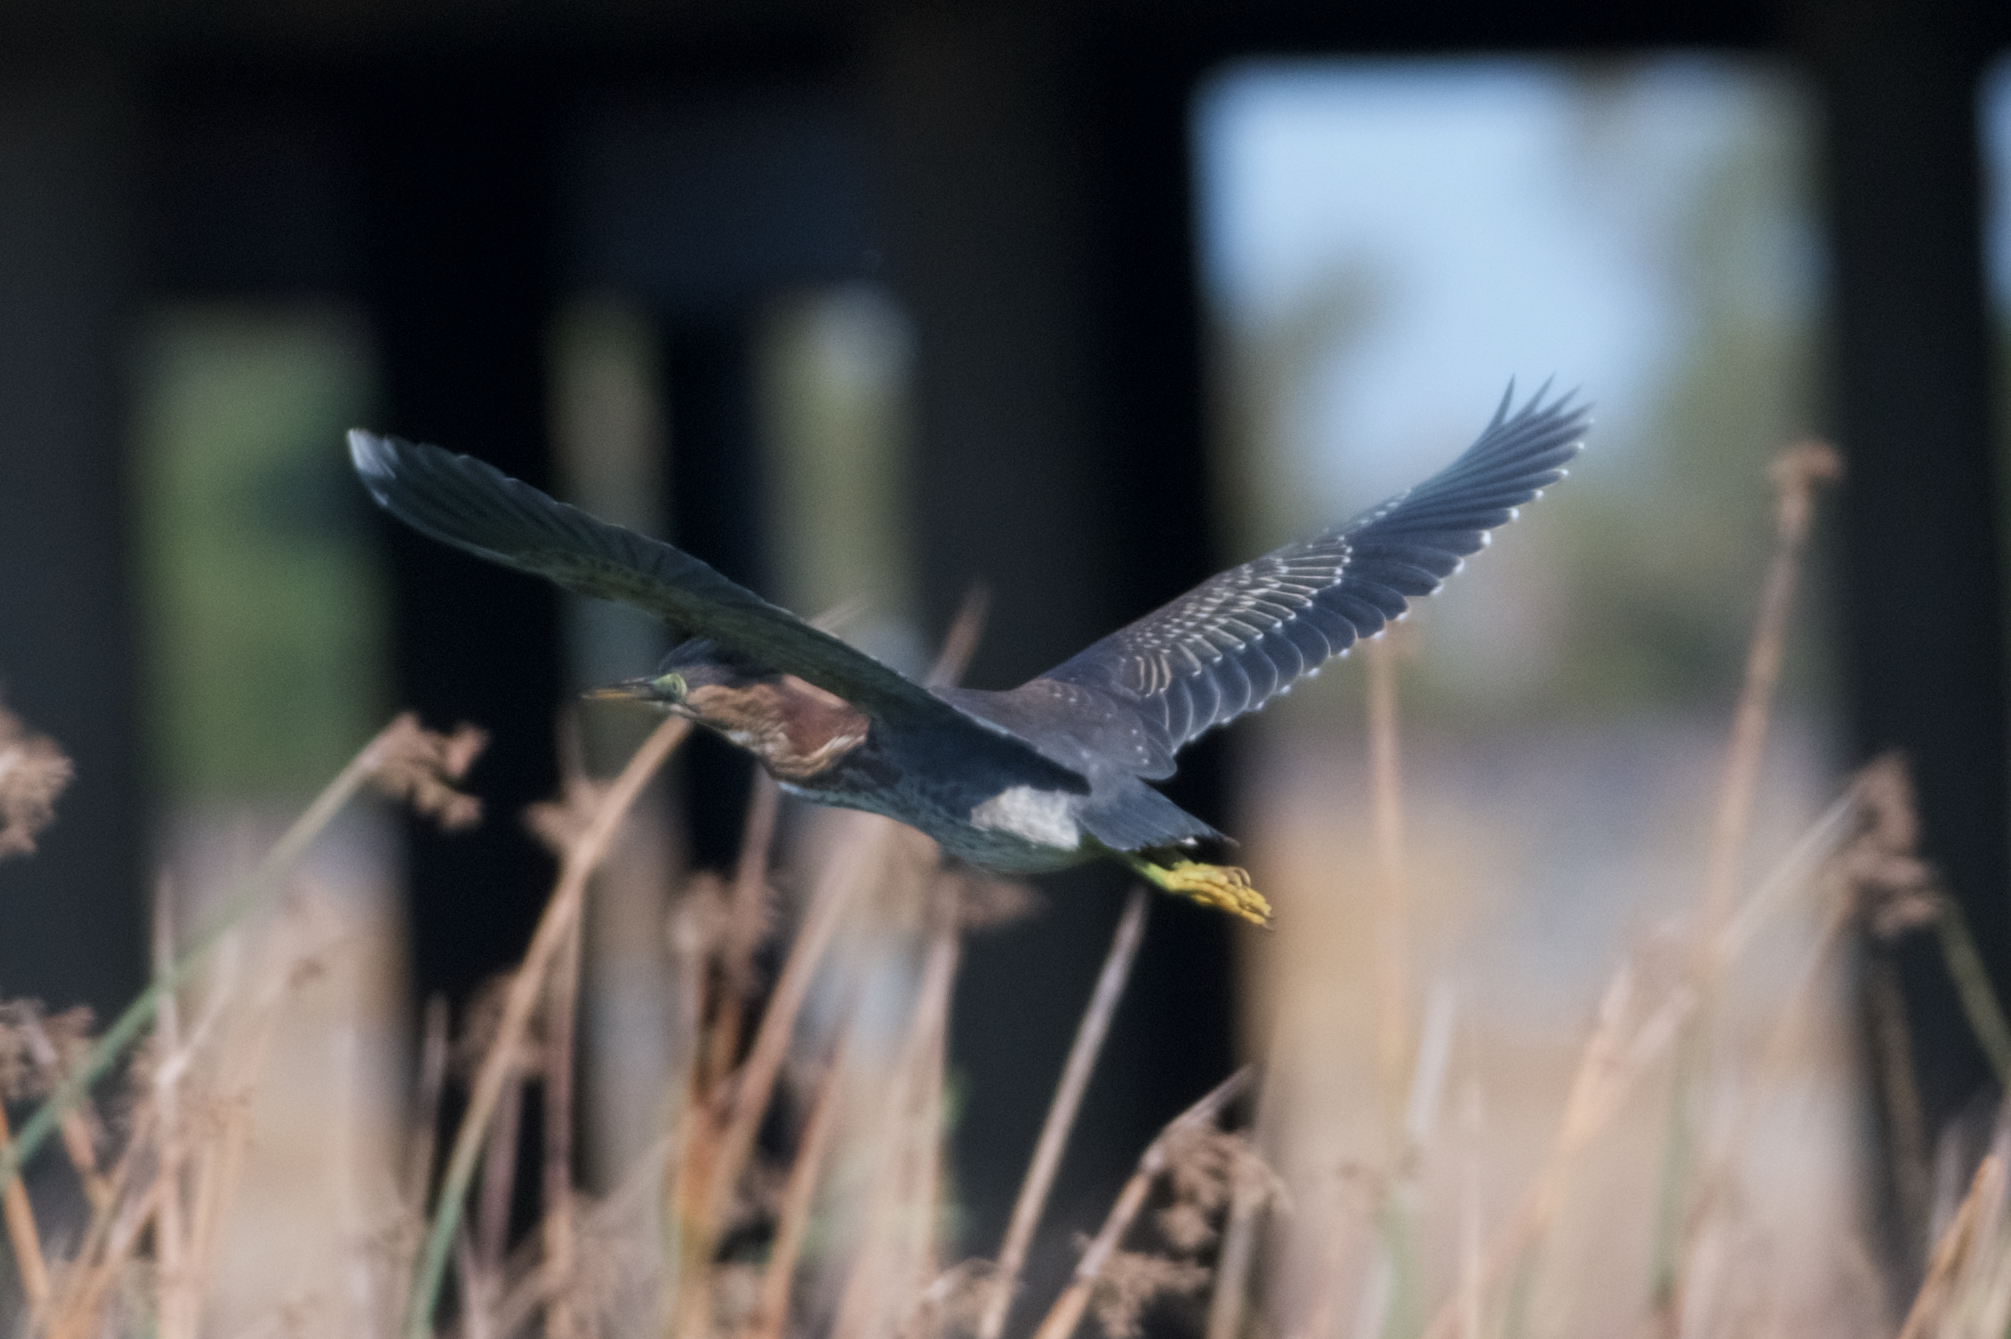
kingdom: Animalia
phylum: Chordata
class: Aves
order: Pelecaniformes
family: Ardeidae
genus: Butorides
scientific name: Butorides virescens
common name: Green heron
